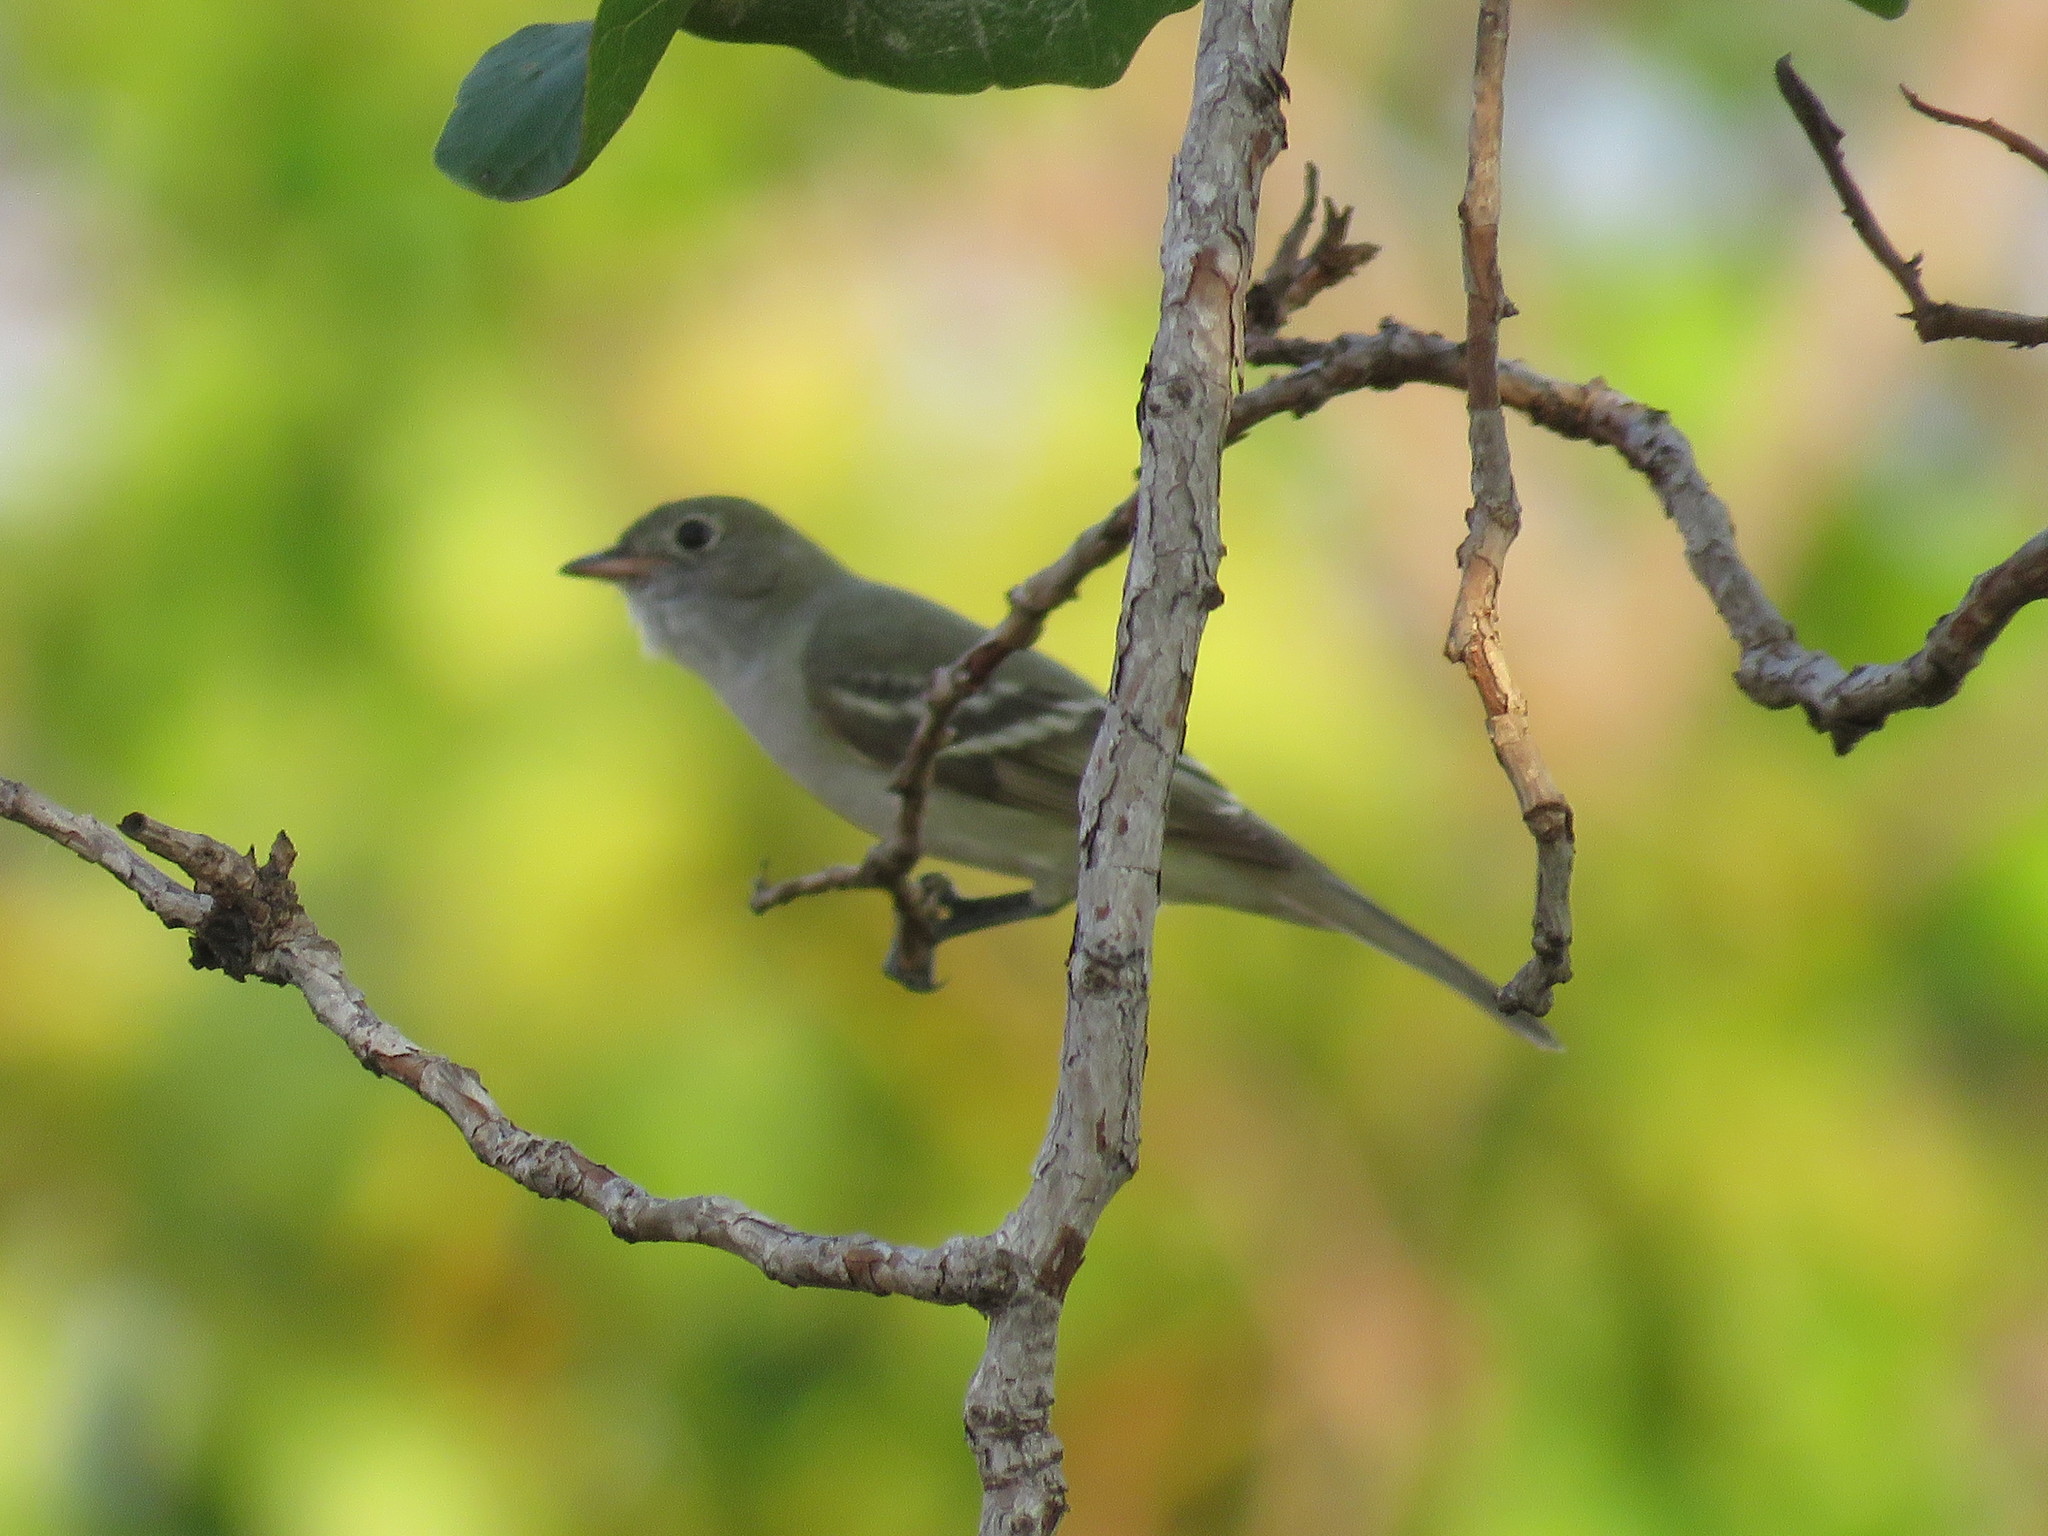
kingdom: Animalia
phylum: Chordata
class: Aves
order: Passeriformes
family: Tyrannidae
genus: Elaenia
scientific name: Elaenia spectabilis
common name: Large elaenia
